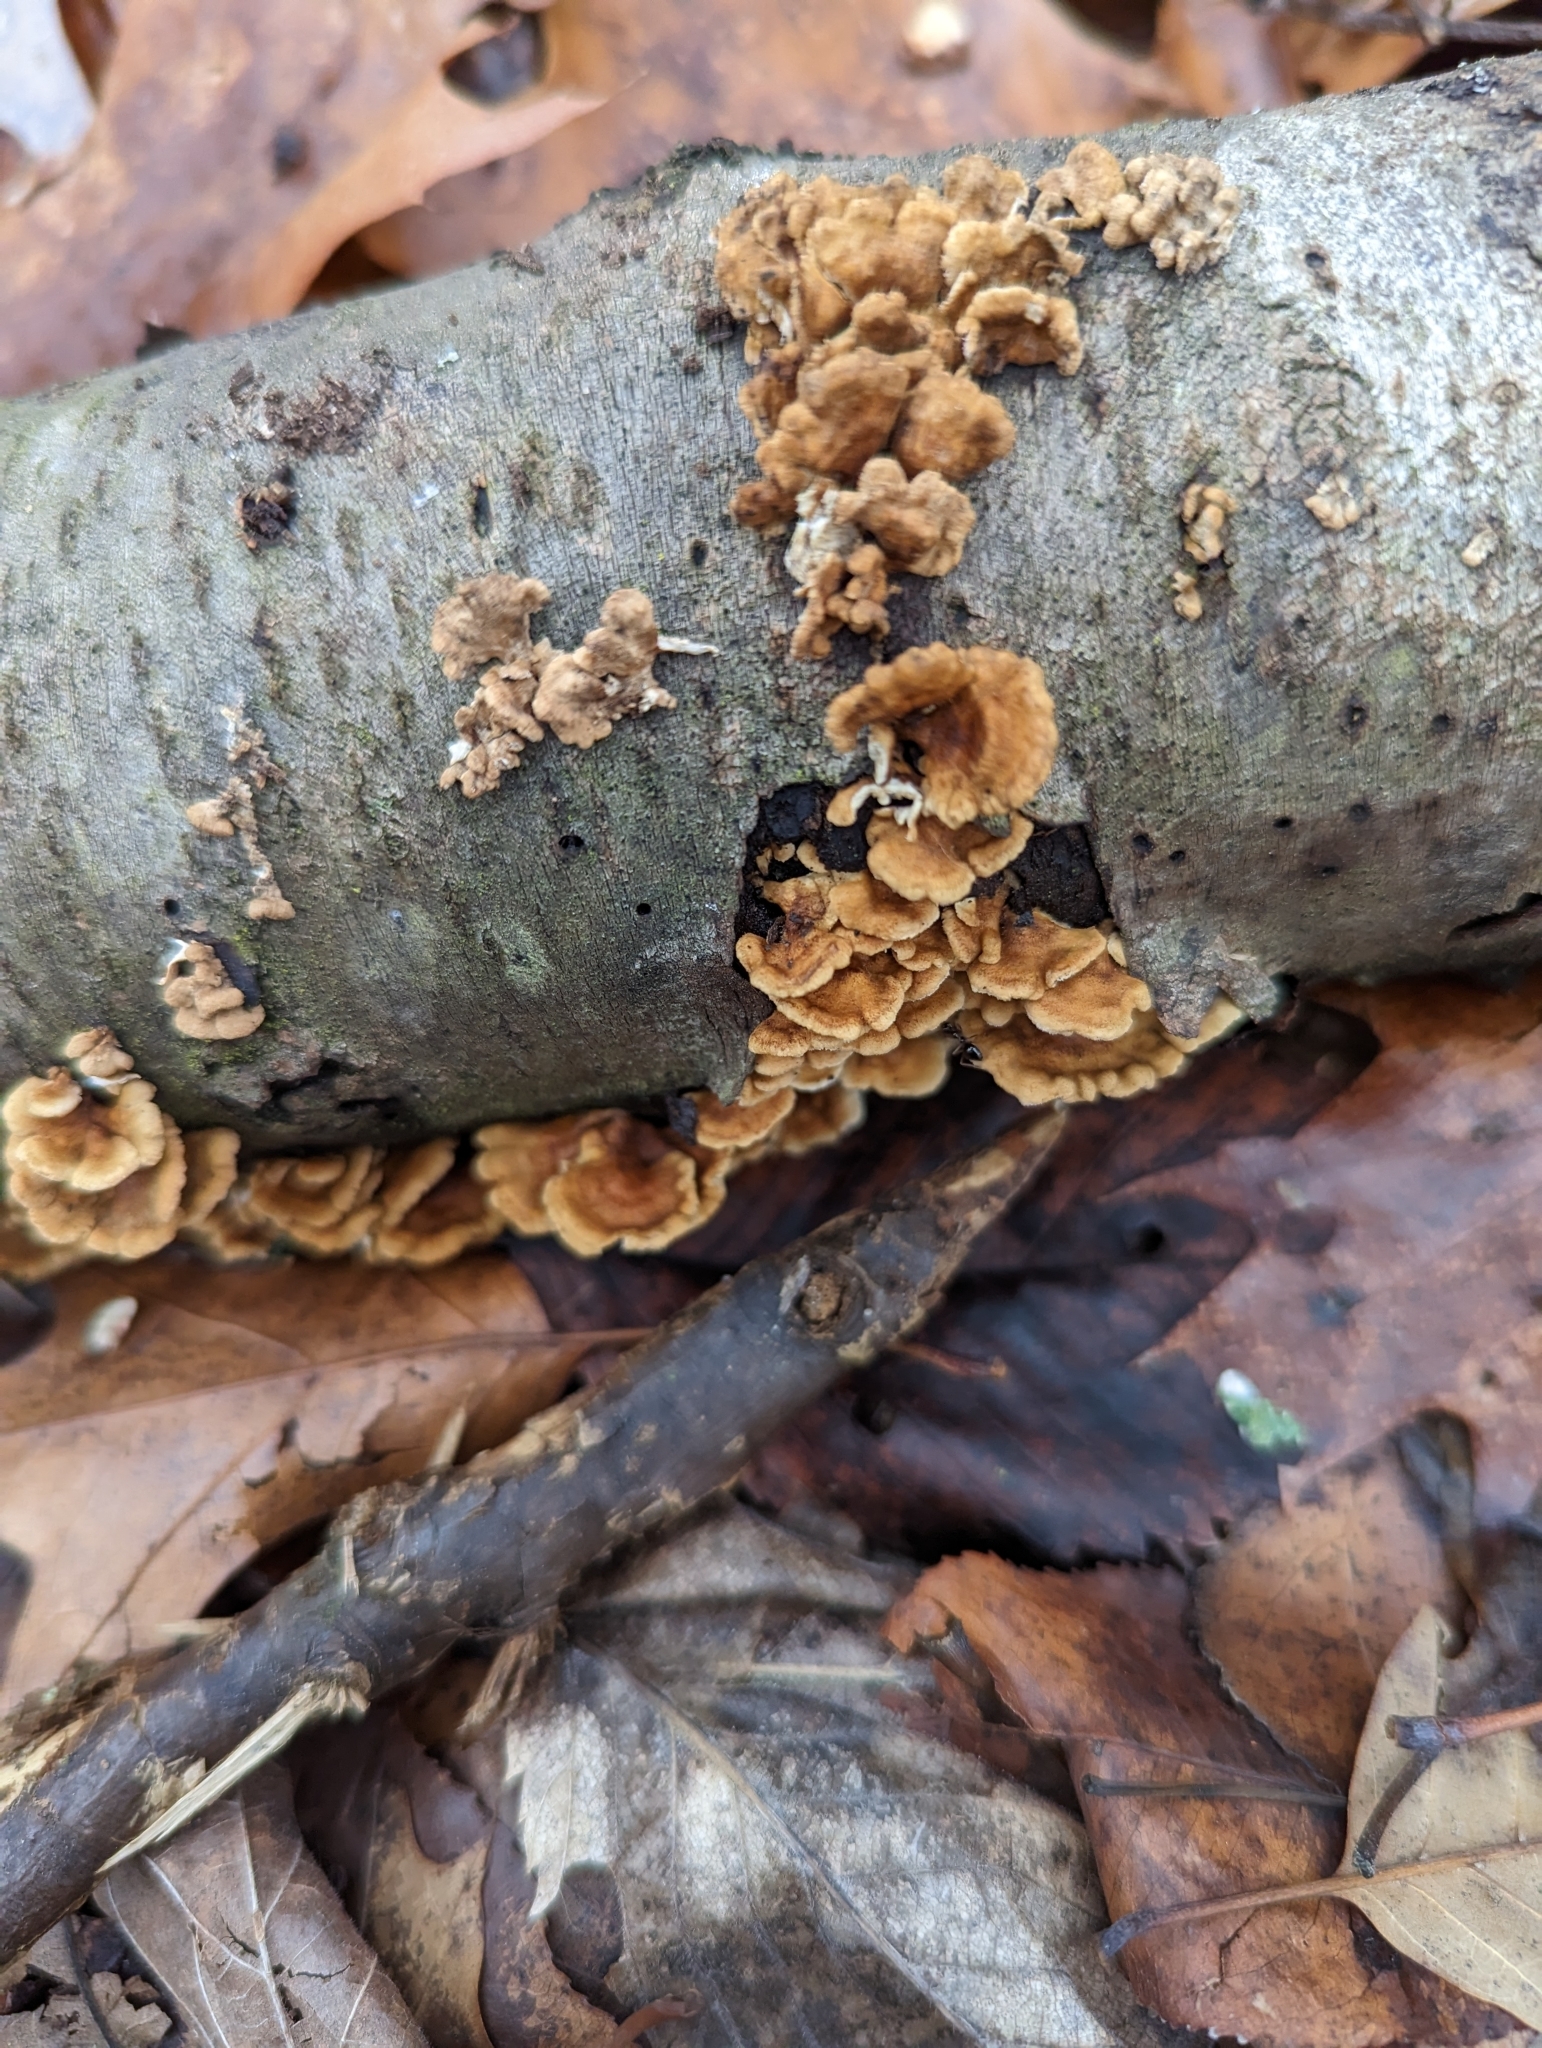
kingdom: Fungi
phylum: Basidiomycota
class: Agaricomycetes
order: Russulales
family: Stereaceae
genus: Stereum
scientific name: Stereum complicatum
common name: Crowded parchment
